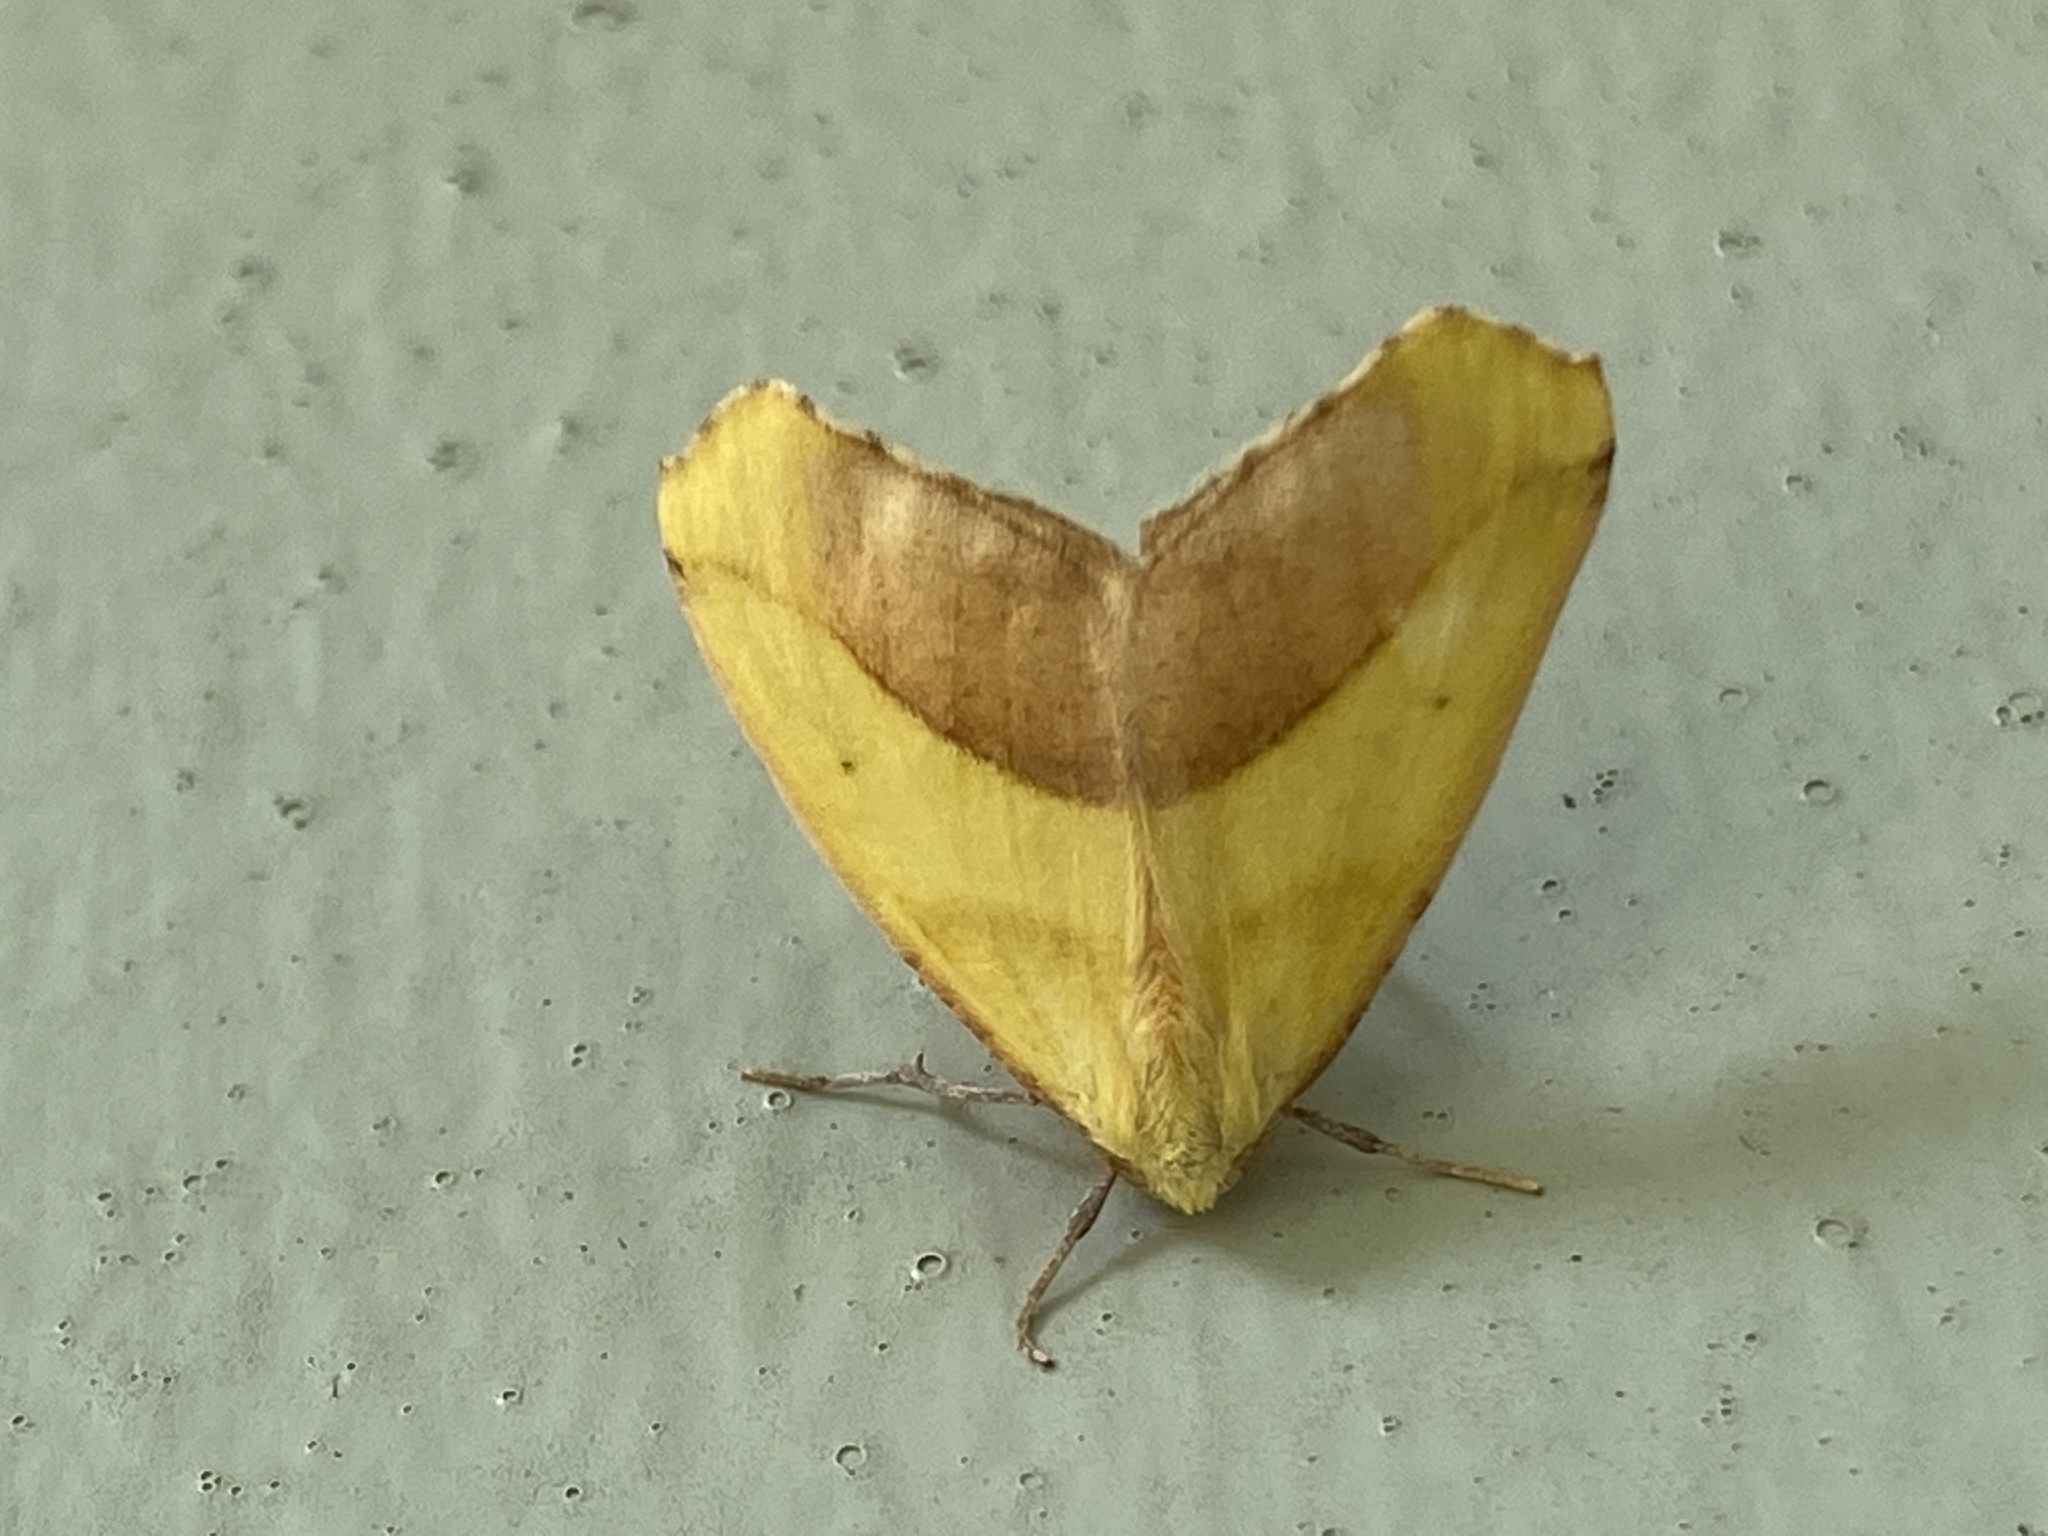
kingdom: Animalia
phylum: Arthropoda
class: Insecta
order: Lepidoptera
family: Geometridae
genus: Sicya
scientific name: Sicya macularia
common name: Sharp-lined yellow
